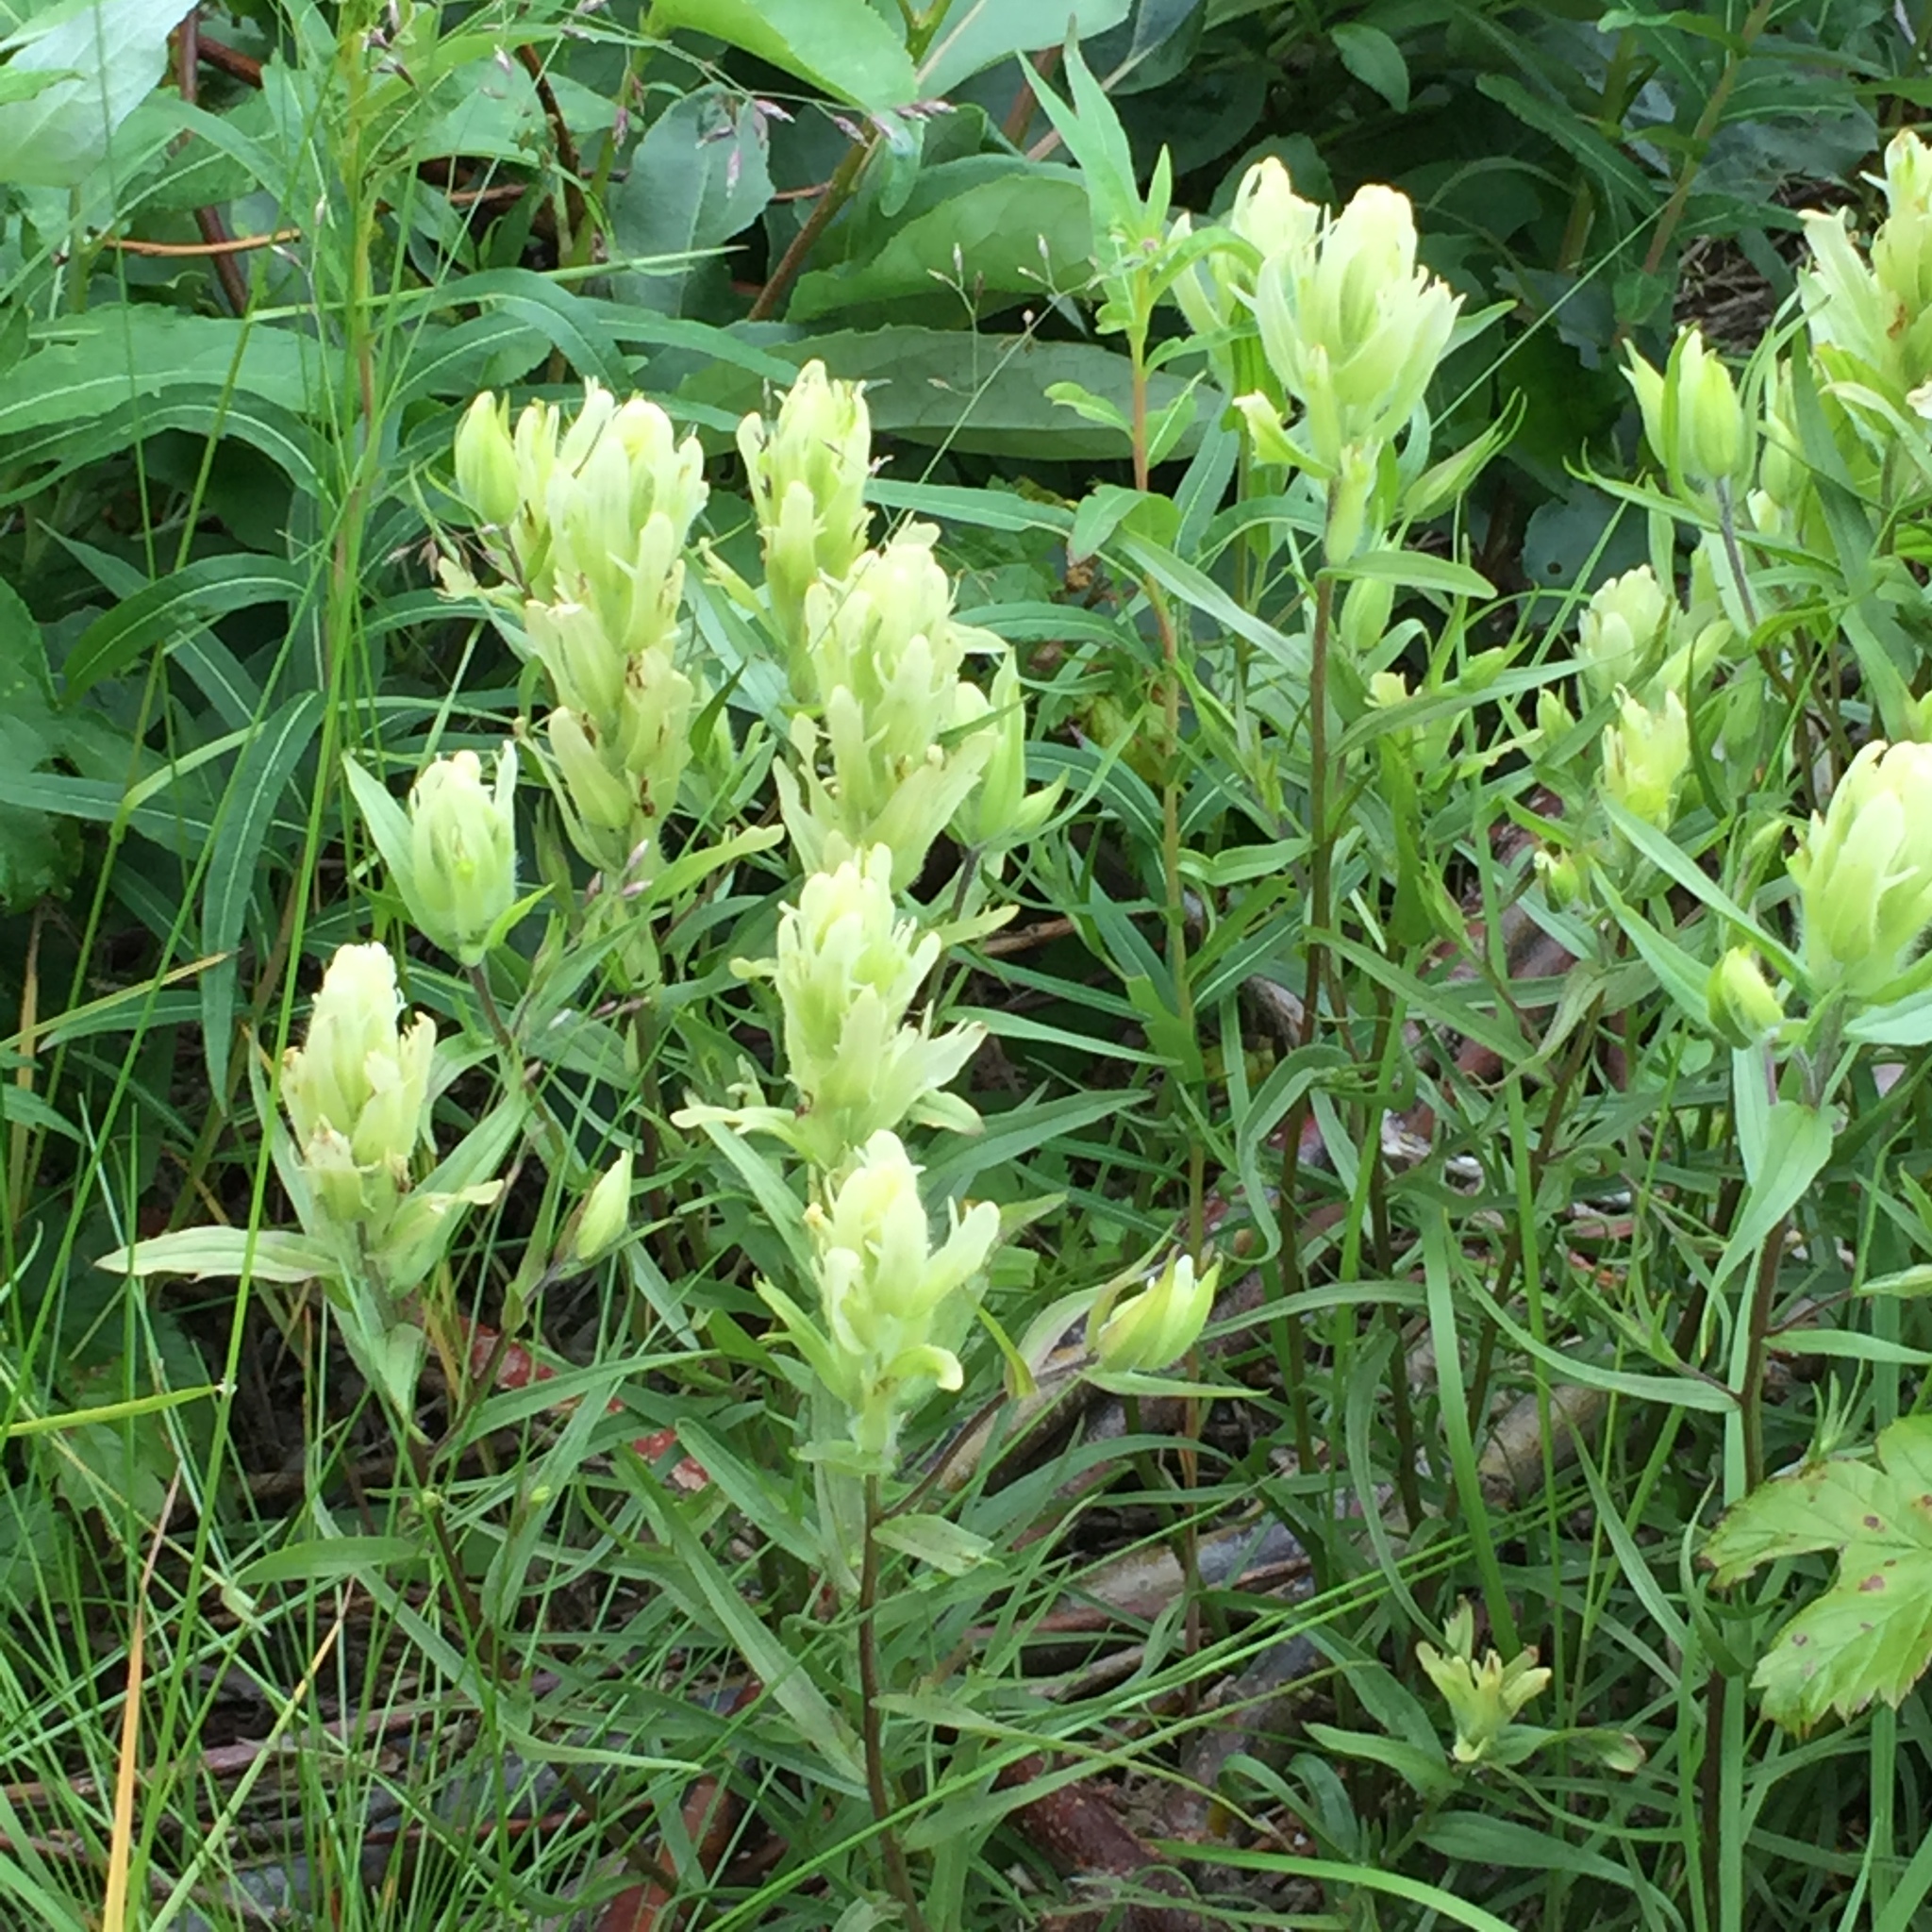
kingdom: Plantae
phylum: Tracheophyta
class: Magnoliopsida
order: Lamiales
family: Orobanchaceae
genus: Castilleja
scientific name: Castilleja pallida
